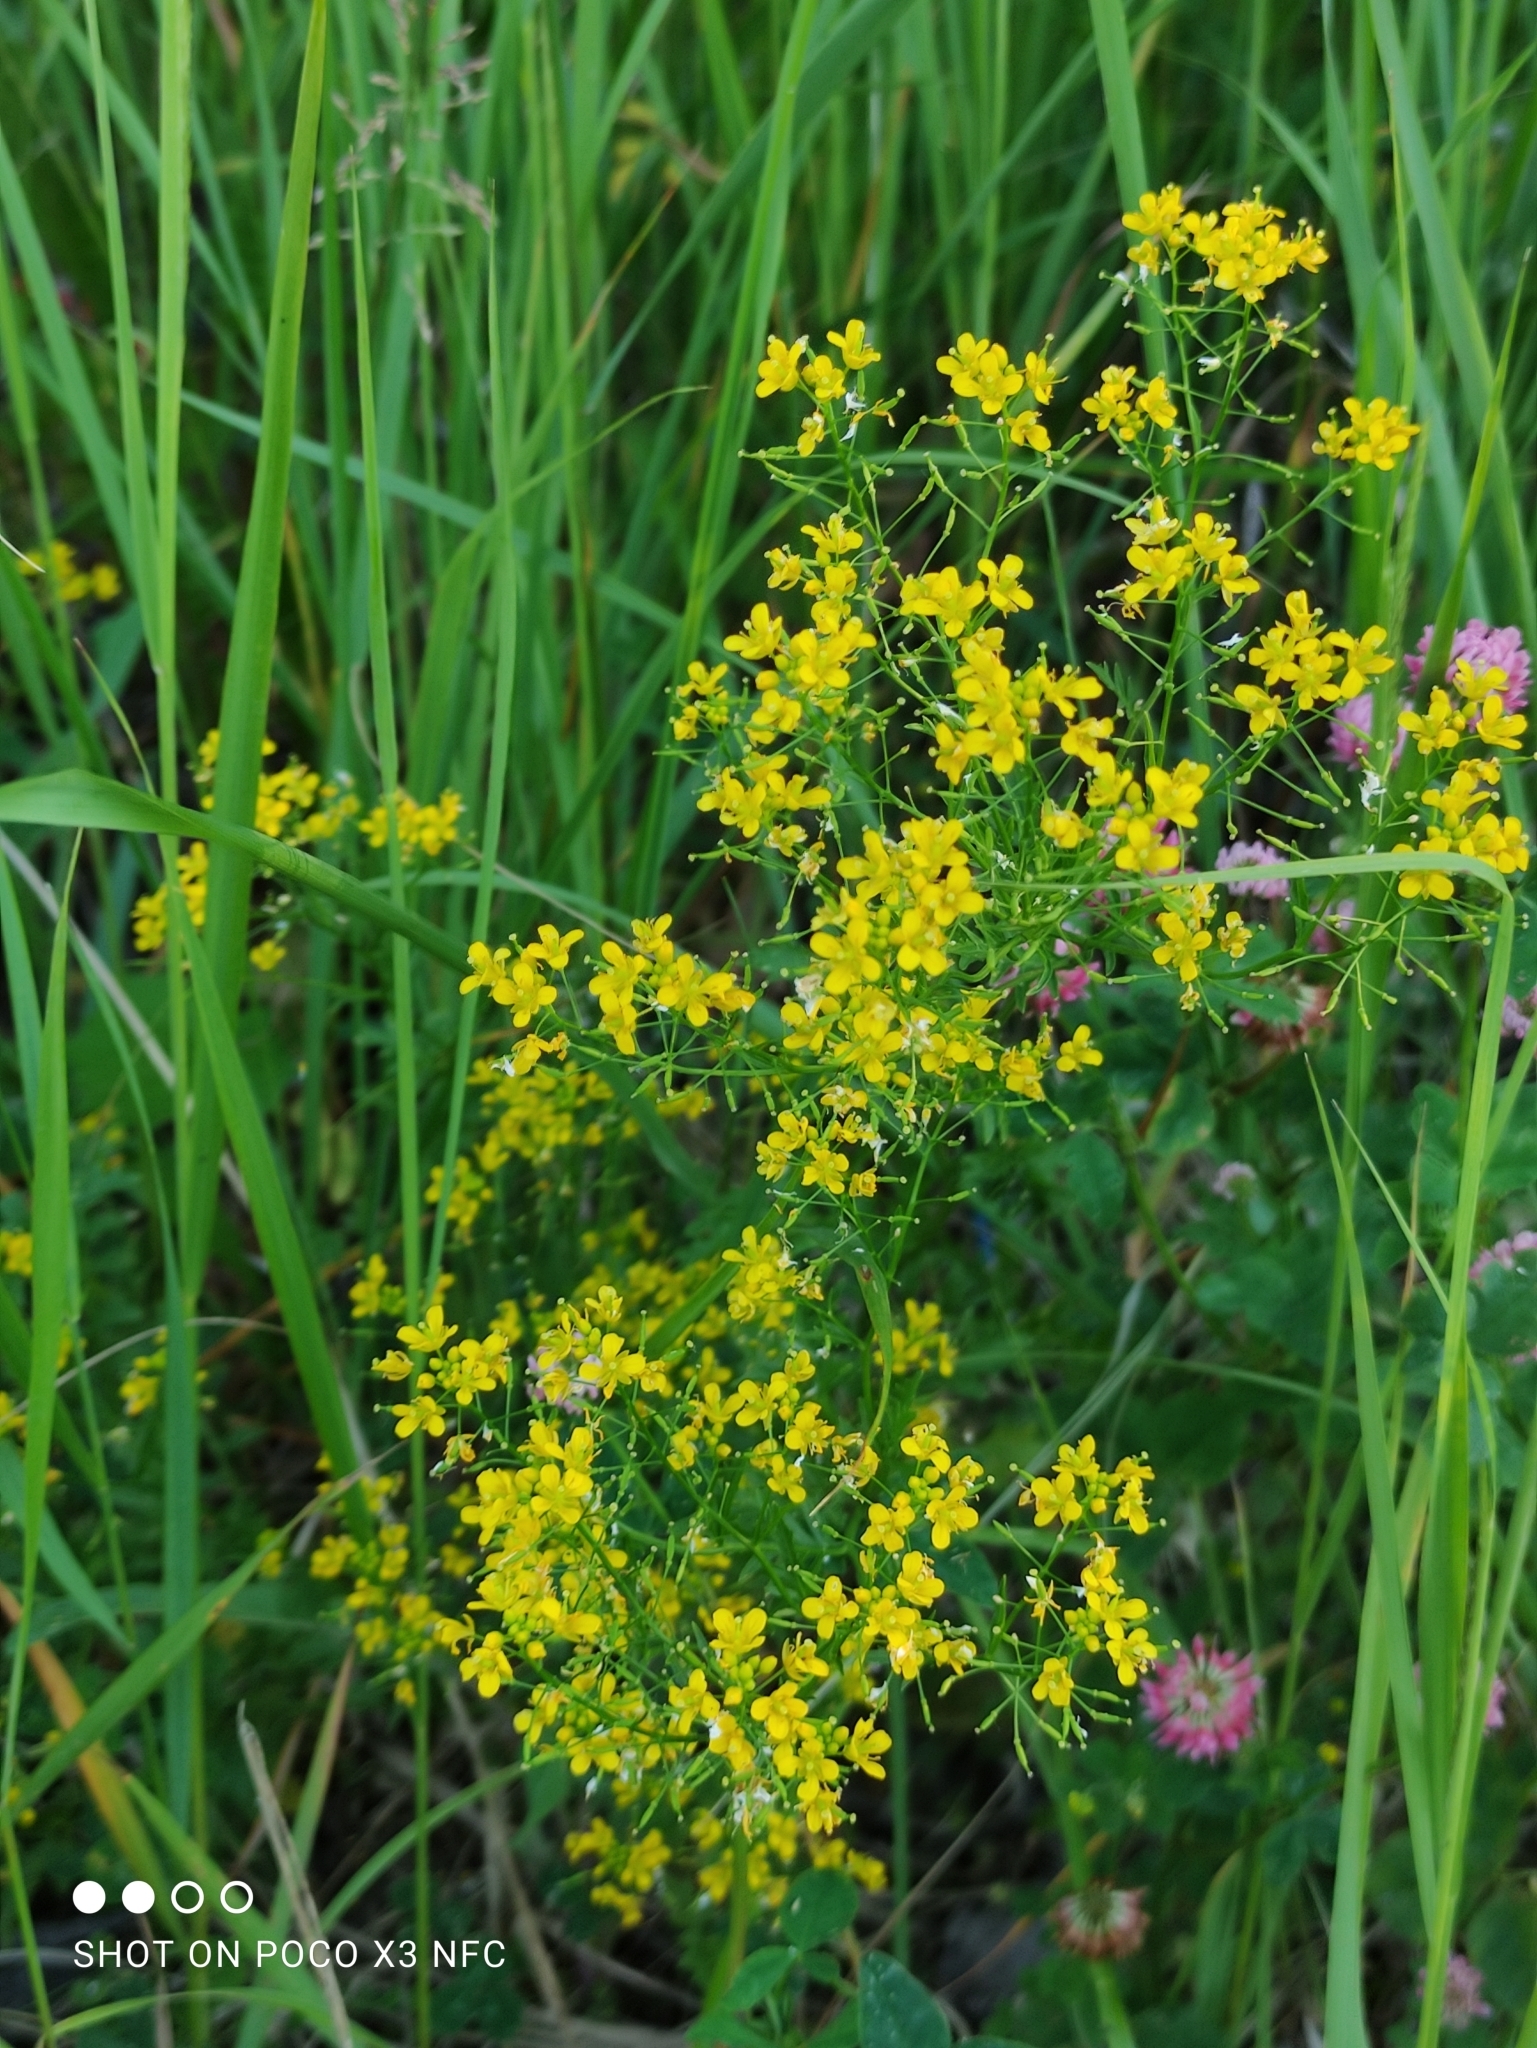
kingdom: Plantae
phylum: Tracheophyta
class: Magnoliopsida
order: Brassicales
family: Brassicaceae
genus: Rorippa
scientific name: Rorippa sylvestris
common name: Creeping yellowcress
